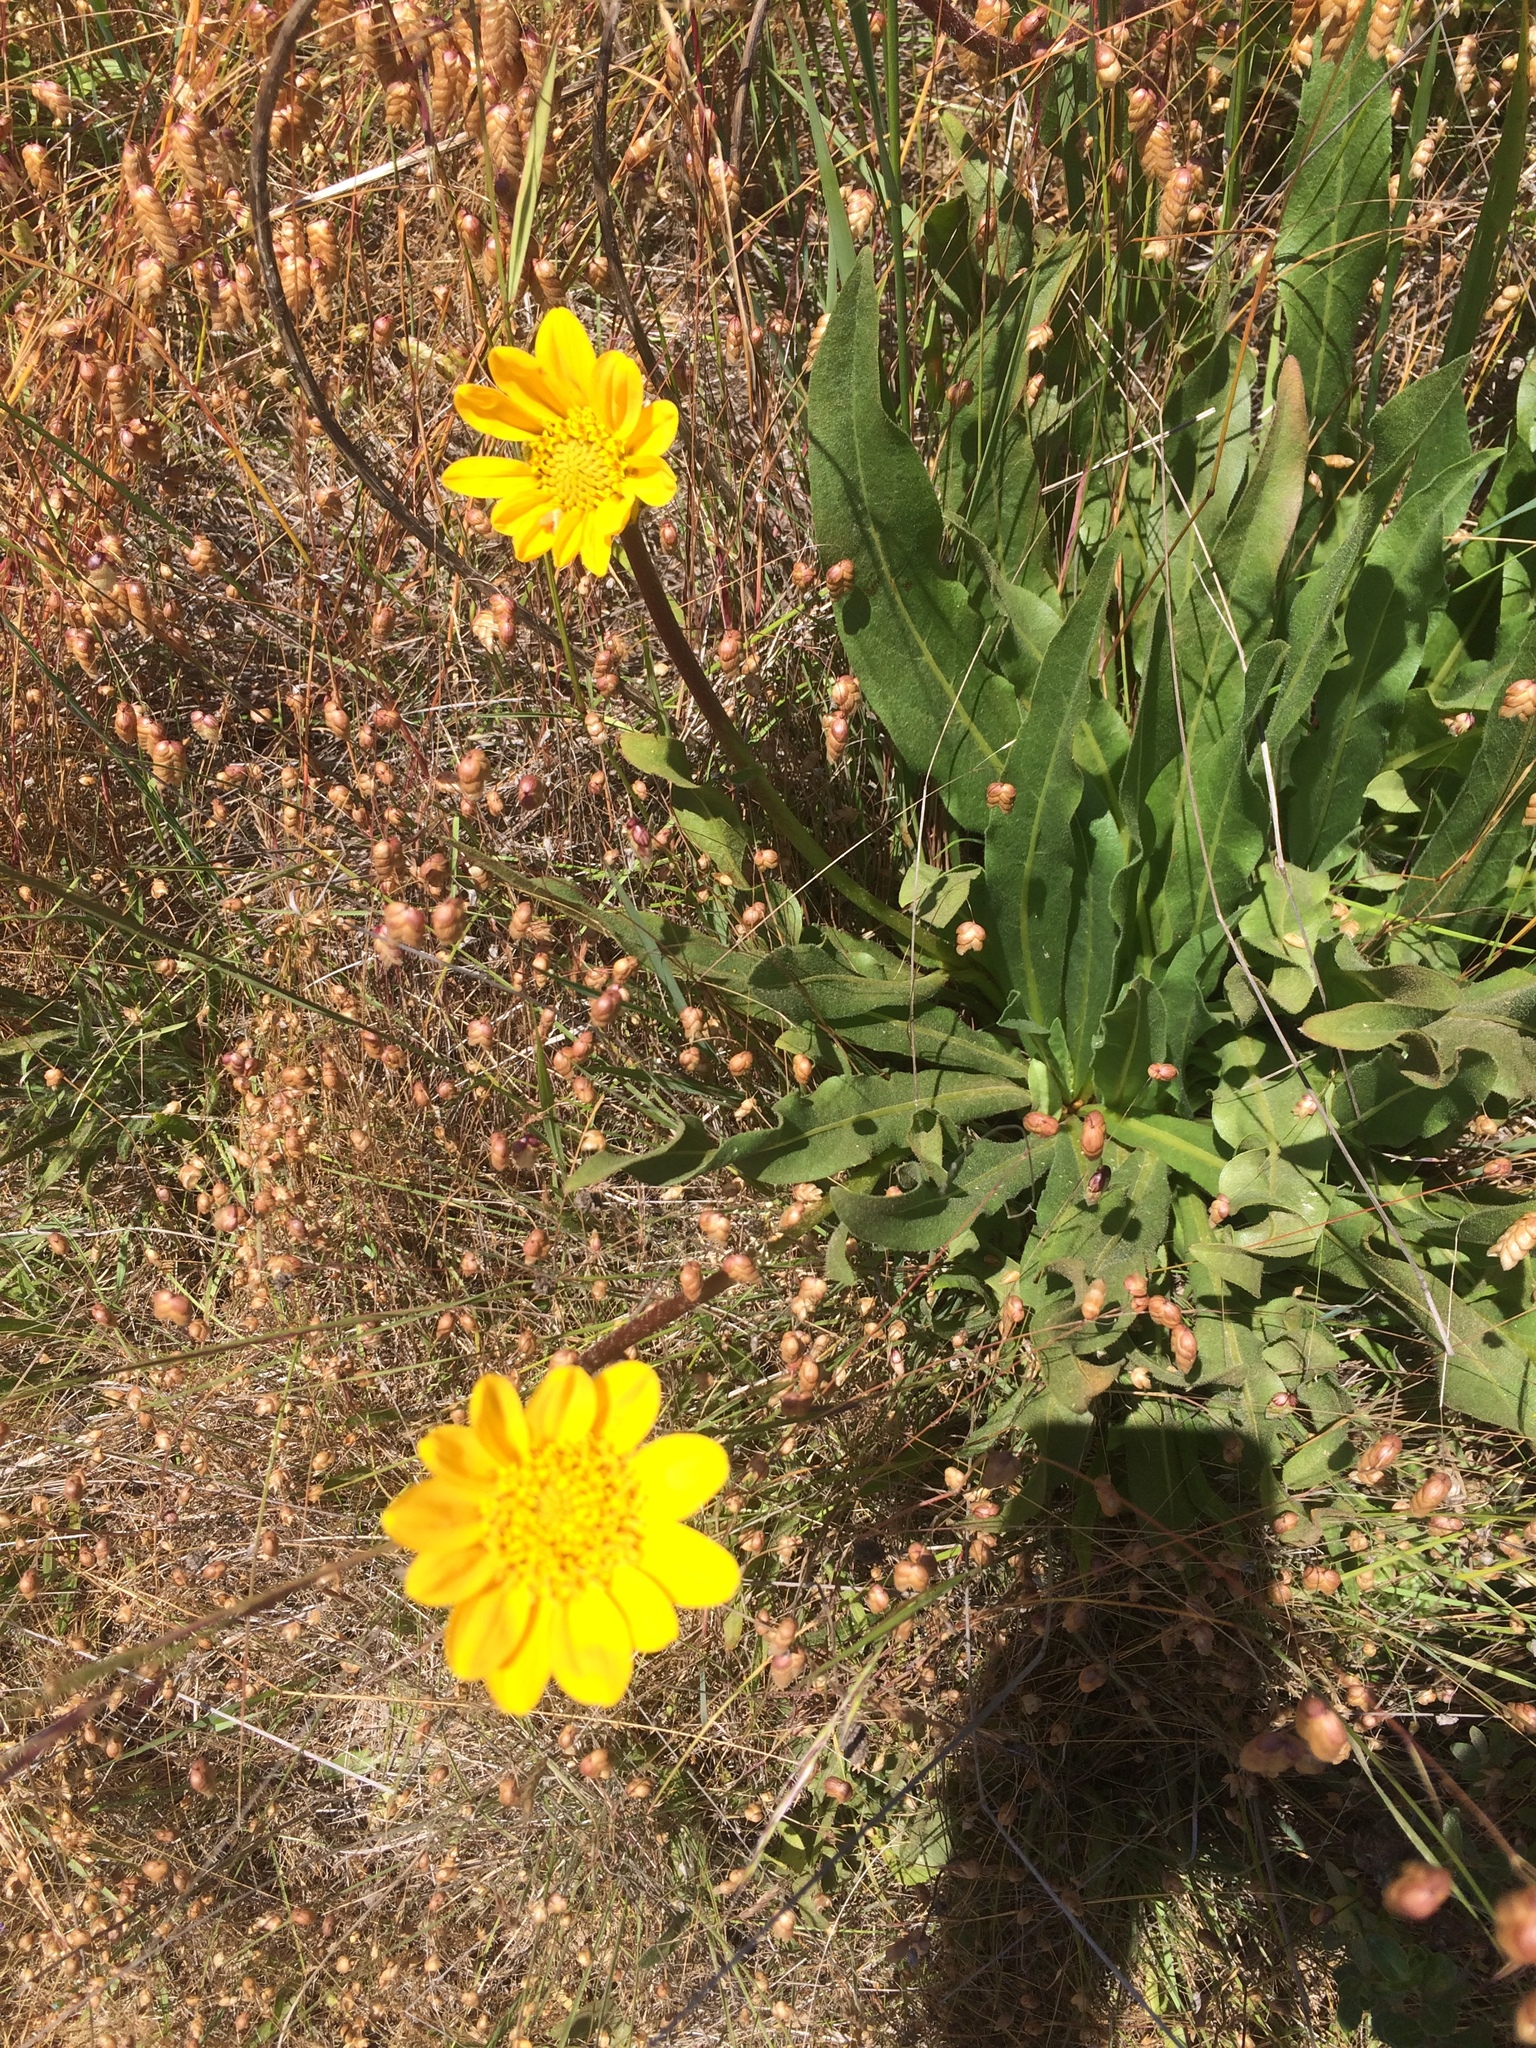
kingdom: Plantae
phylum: Tracheophyta
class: Magnoliopsida
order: Asterales
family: Asteraceae
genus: Wyethia
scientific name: Wyethia angustifolia
